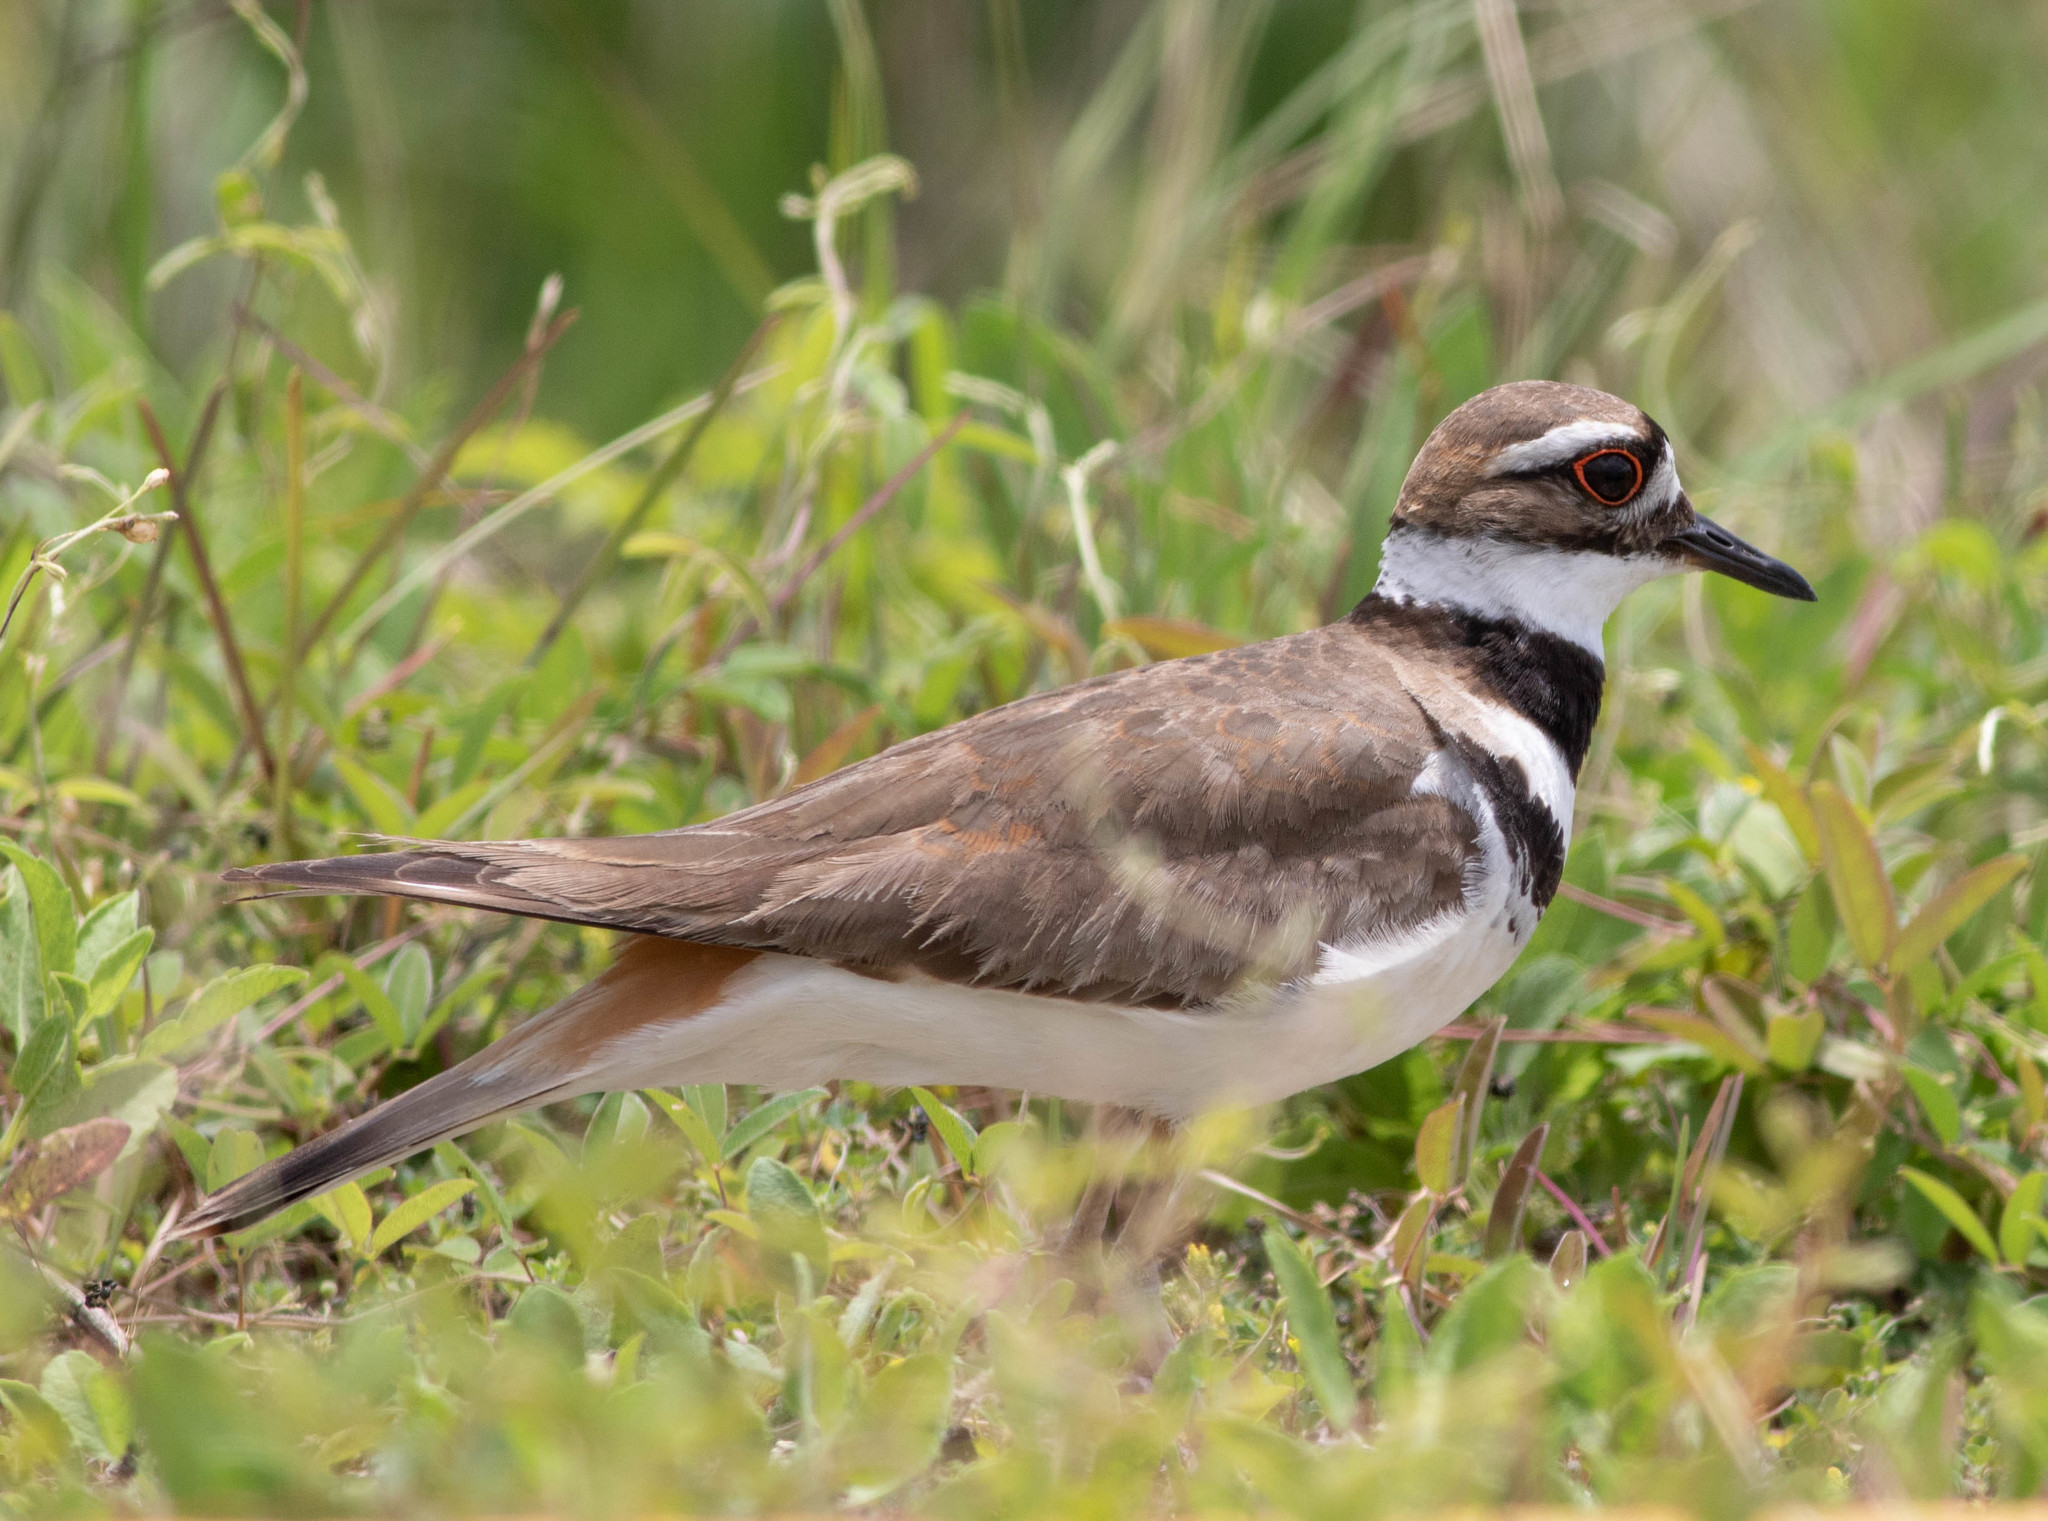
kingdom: Animalia
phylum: Chordata
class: Aves
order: Charadriiformes
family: Charadriidae
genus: Charadrius
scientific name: Charadrius vociferus
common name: Killdeer
